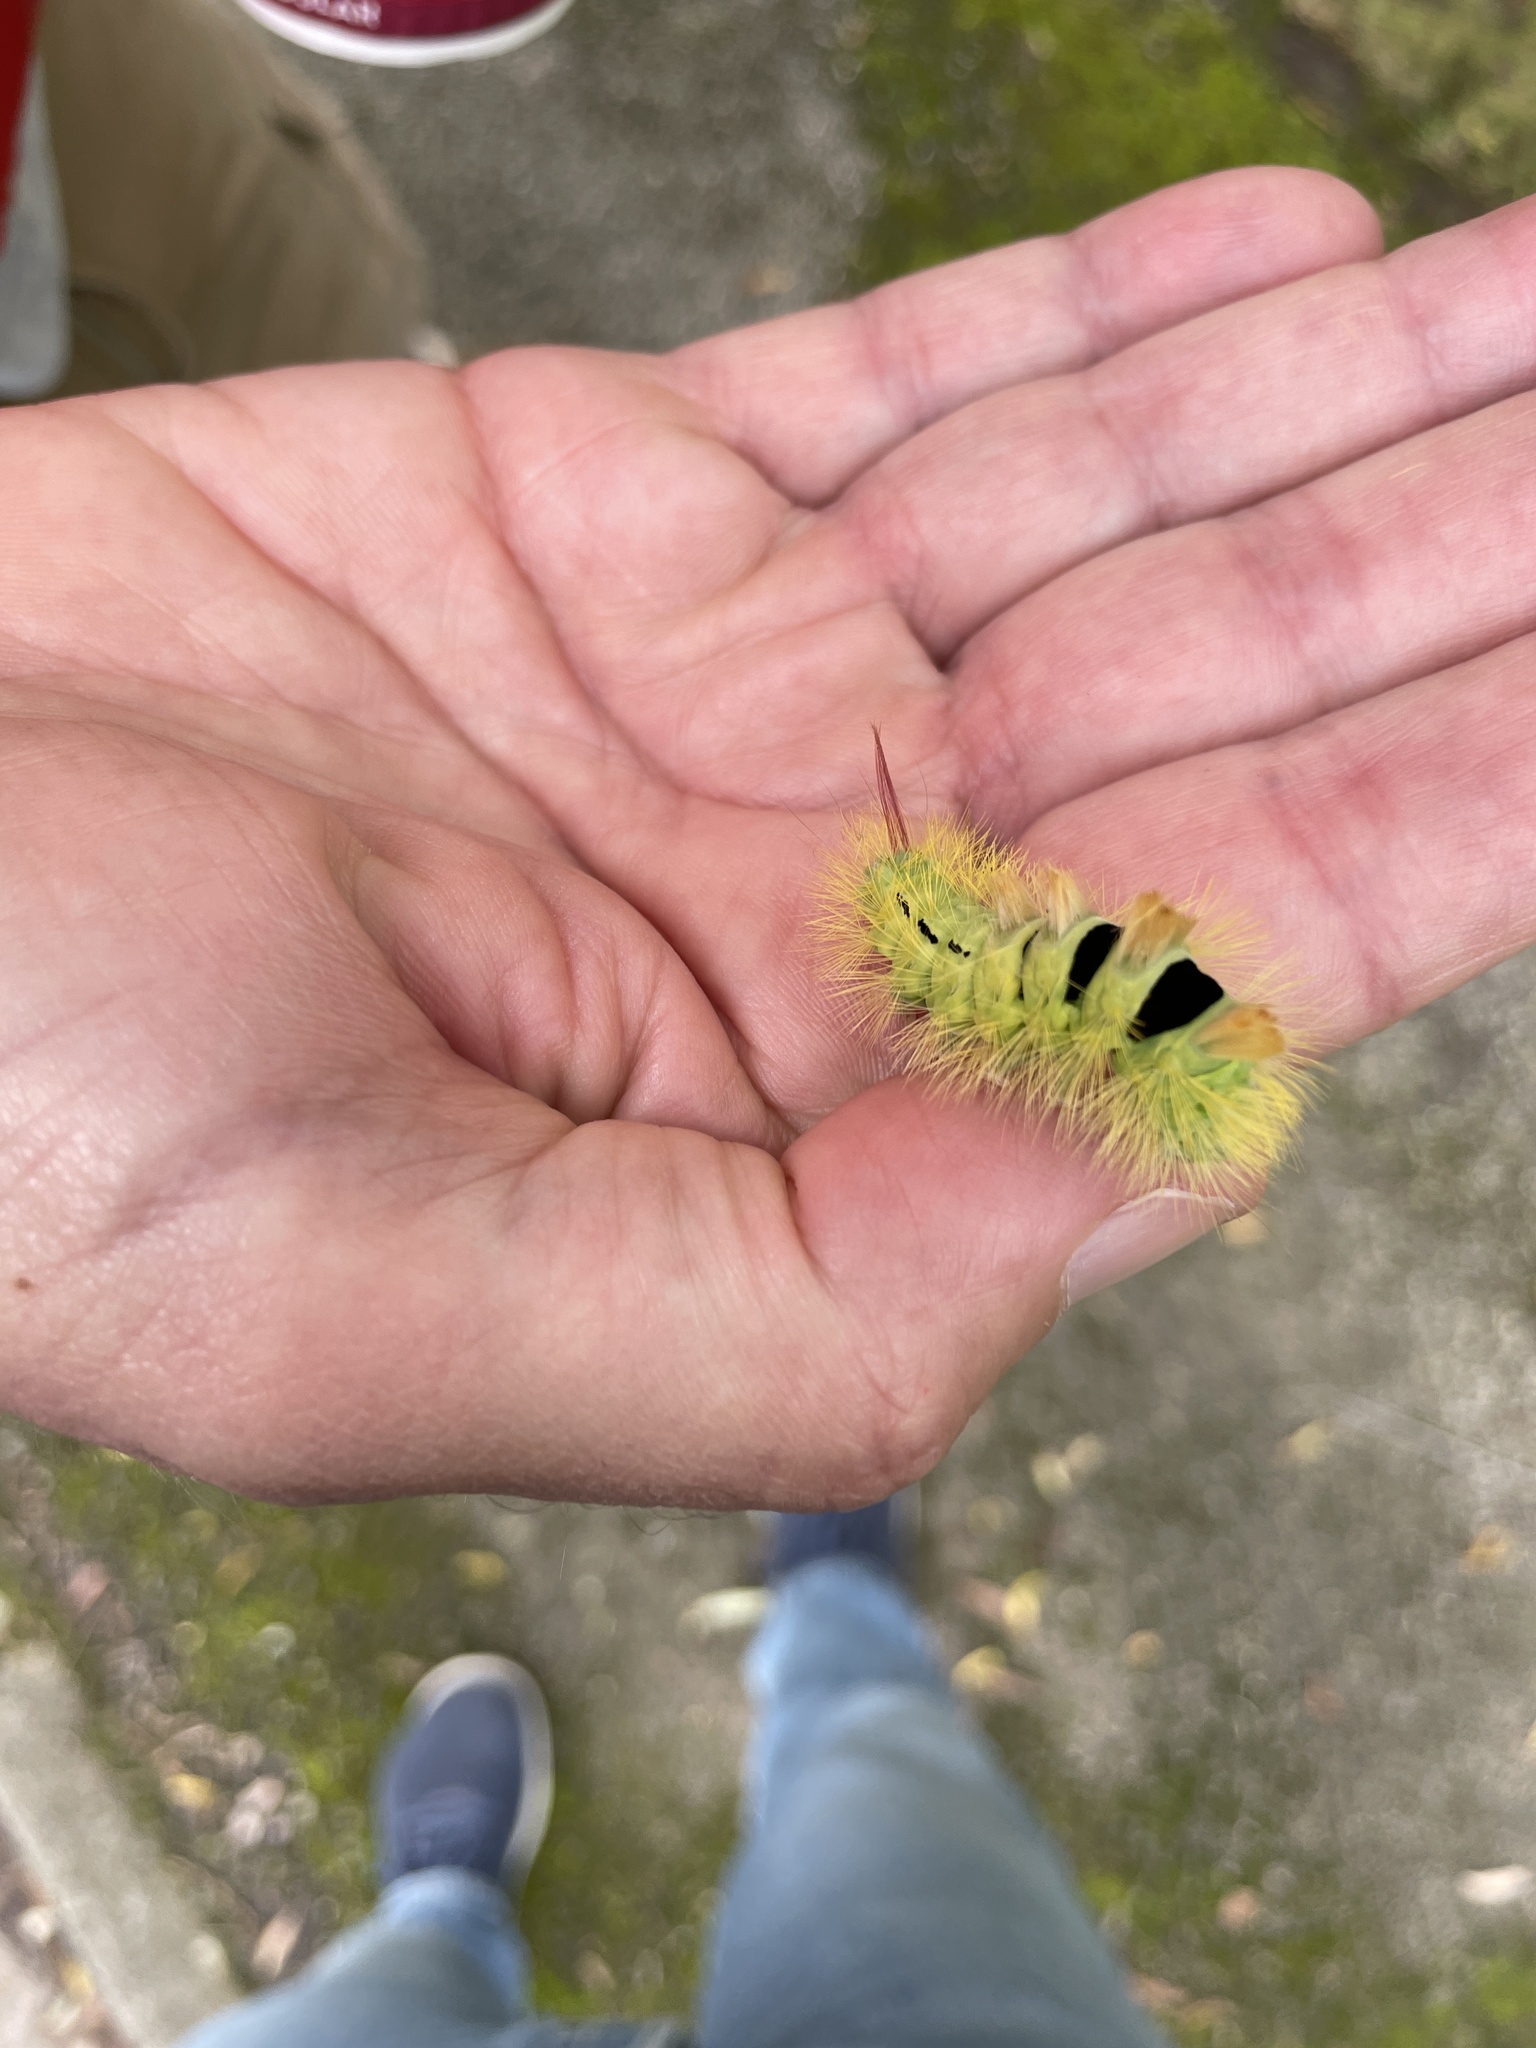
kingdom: Animalia
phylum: Arthropoda
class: Insecta
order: Lepidoptera
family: Erebidae
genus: Calliteara
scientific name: Calliteara pudibunda
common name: Pale tussock
